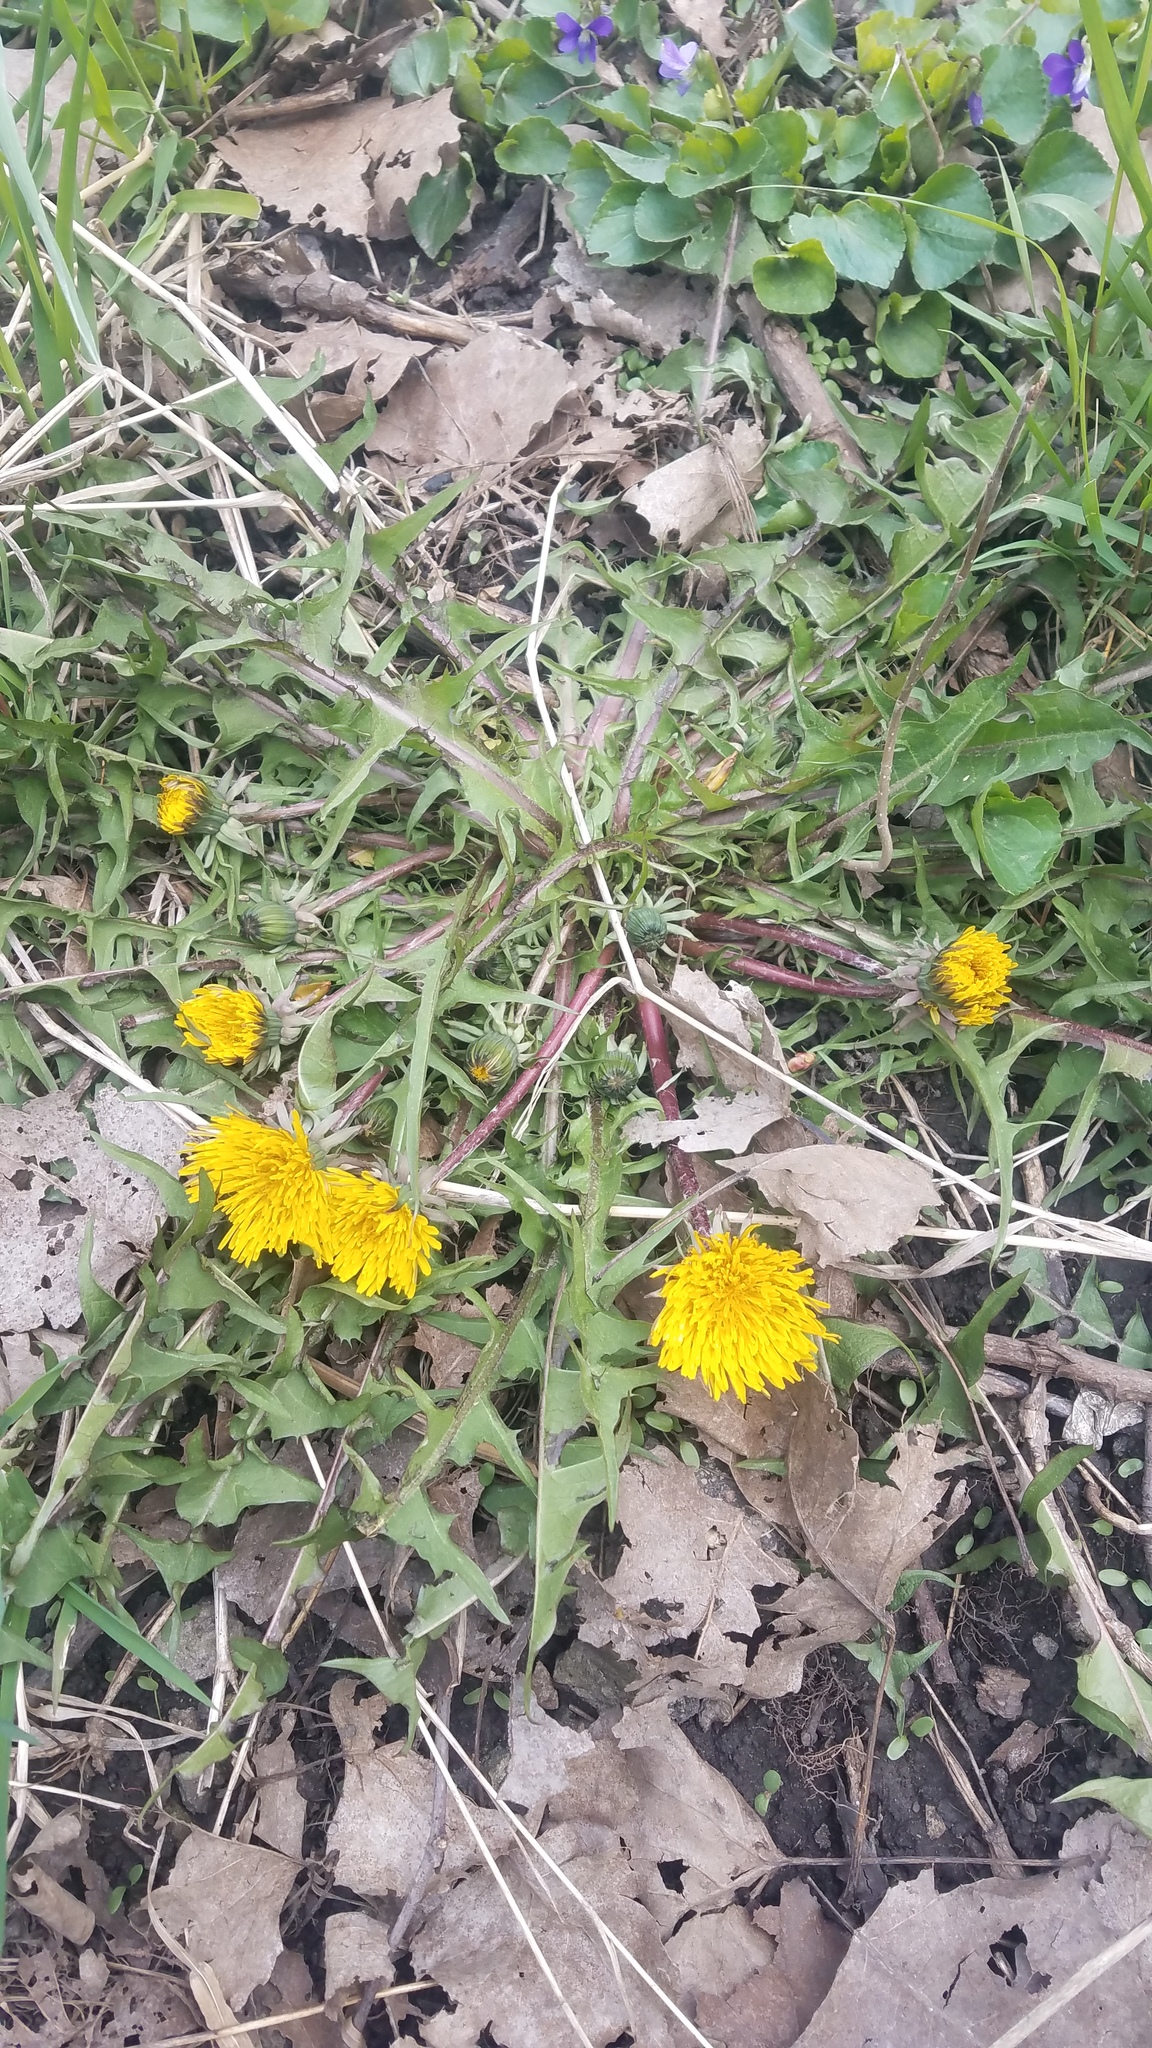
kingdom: Plantae
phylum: Tracheophyta
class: Magnoliopsida
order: Asterales
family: Asteraceae
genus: Taraxacum
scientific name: Taraxacum officinale
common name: Common dandelion
